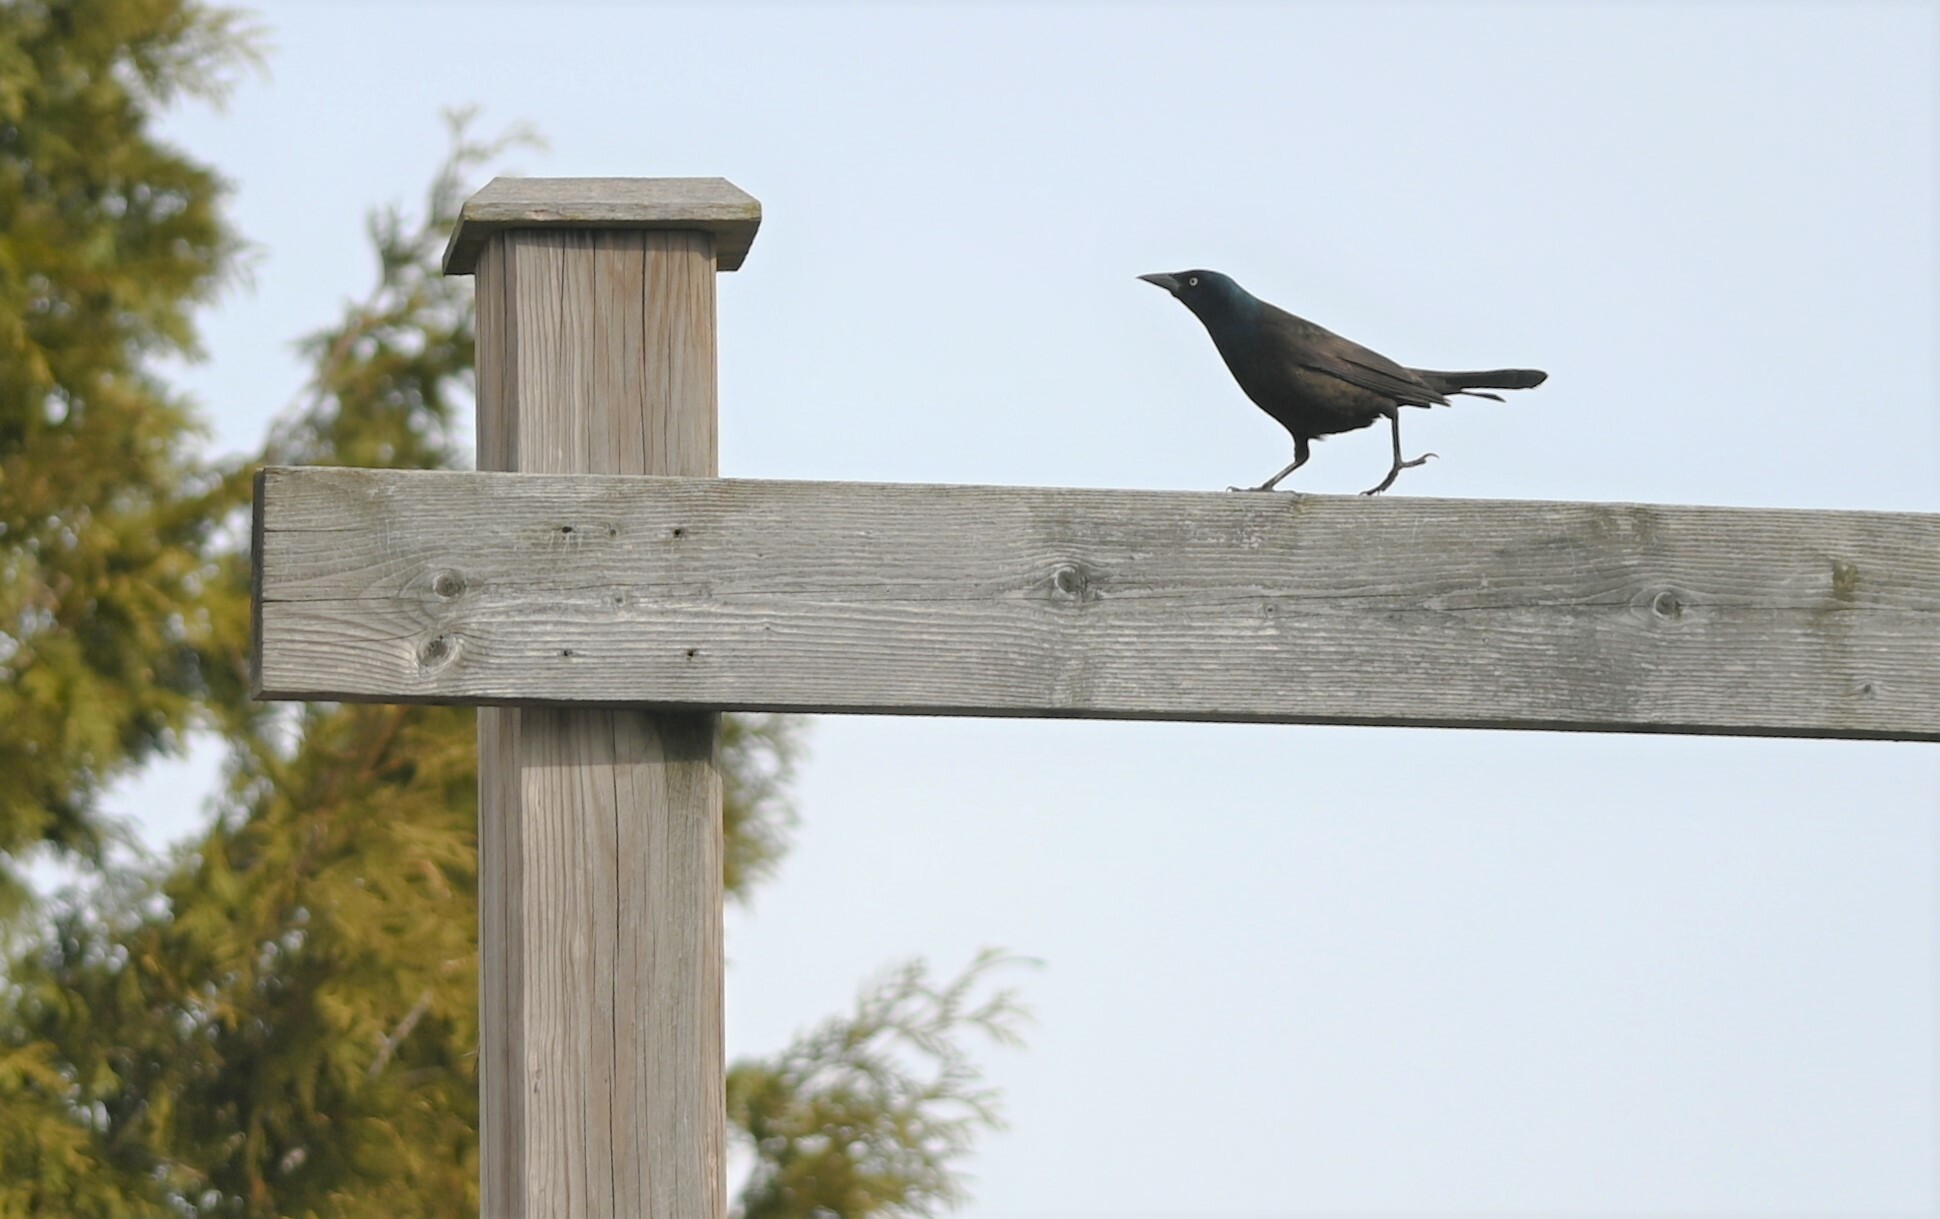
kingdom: Animalia
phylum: Chordata
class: Aves
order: Passeriformes
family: Icteridae
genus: Quiscalus
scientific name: Quiscalus quiscula
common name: Common grackle
